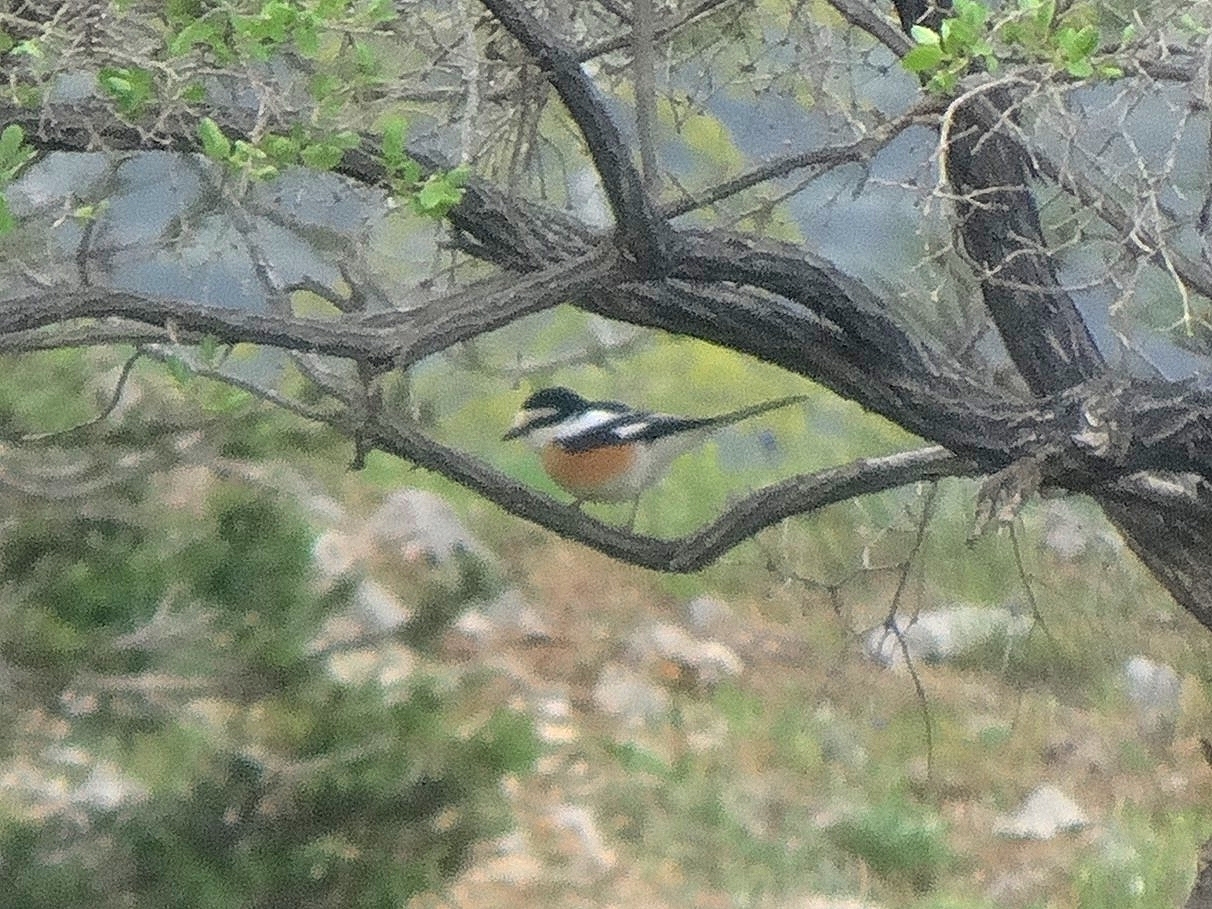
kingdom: Animalia
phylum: Chordata
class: Aves
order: Passeriformes
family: Laniidae
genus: Lanius
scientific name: Lanius nubicus
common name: Masked shrike
